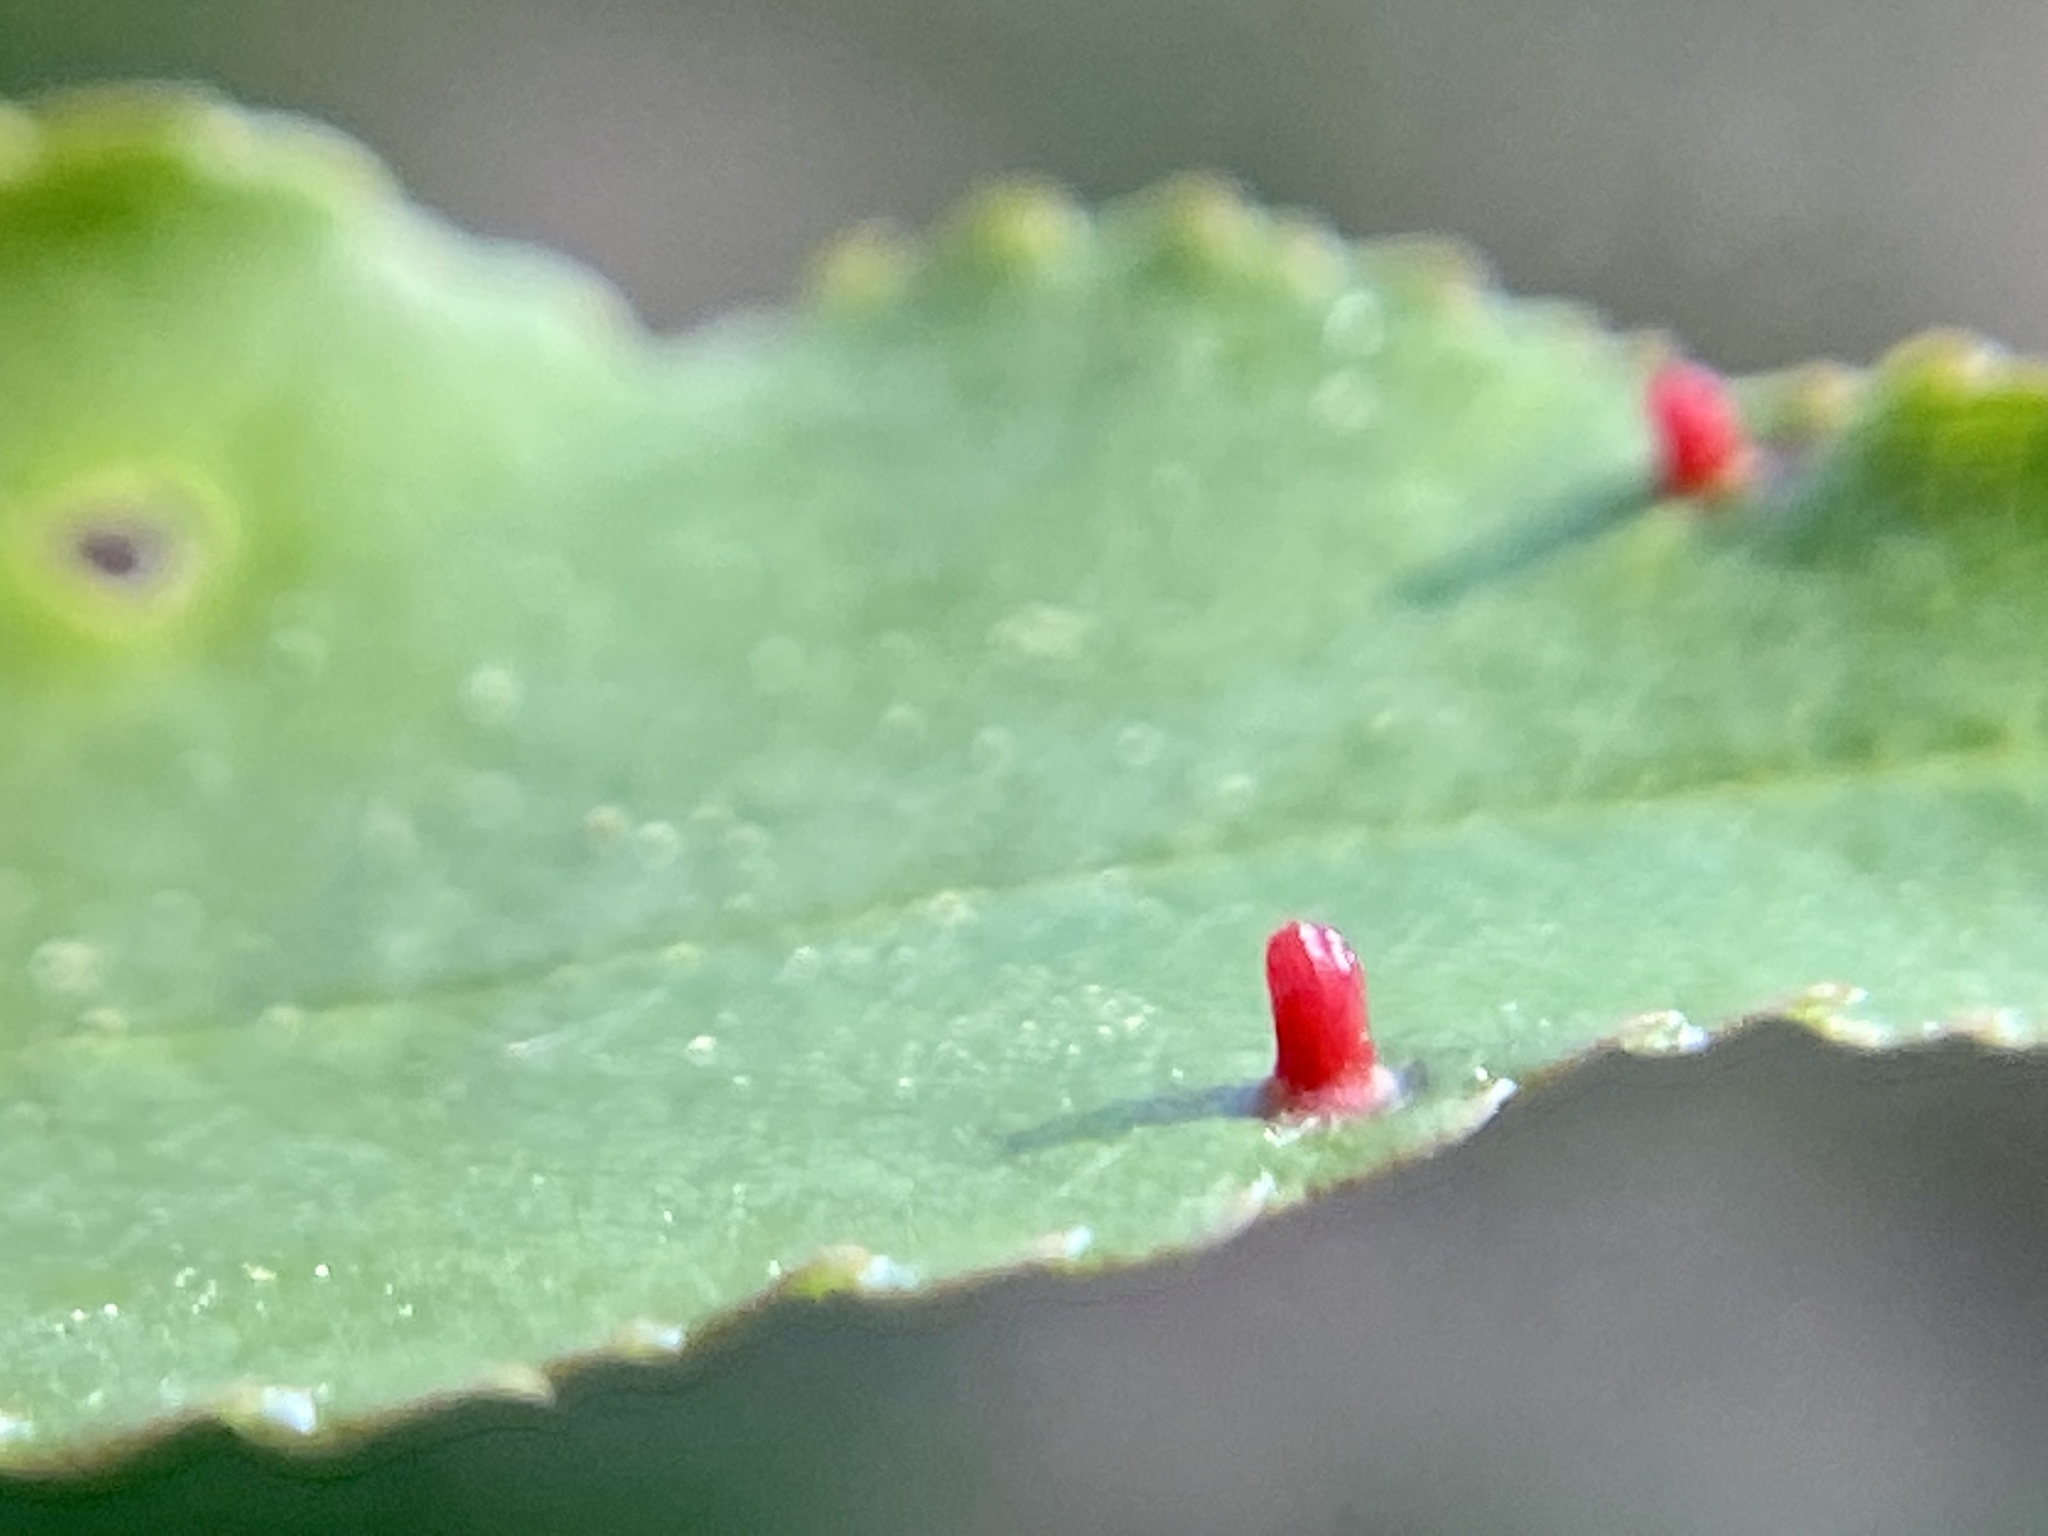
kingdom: Animalia
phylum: Arthropoda
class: Arachnida
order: Trombidiformes
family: Eriophyidae
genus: Eriophyes
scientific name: Eriophyes
